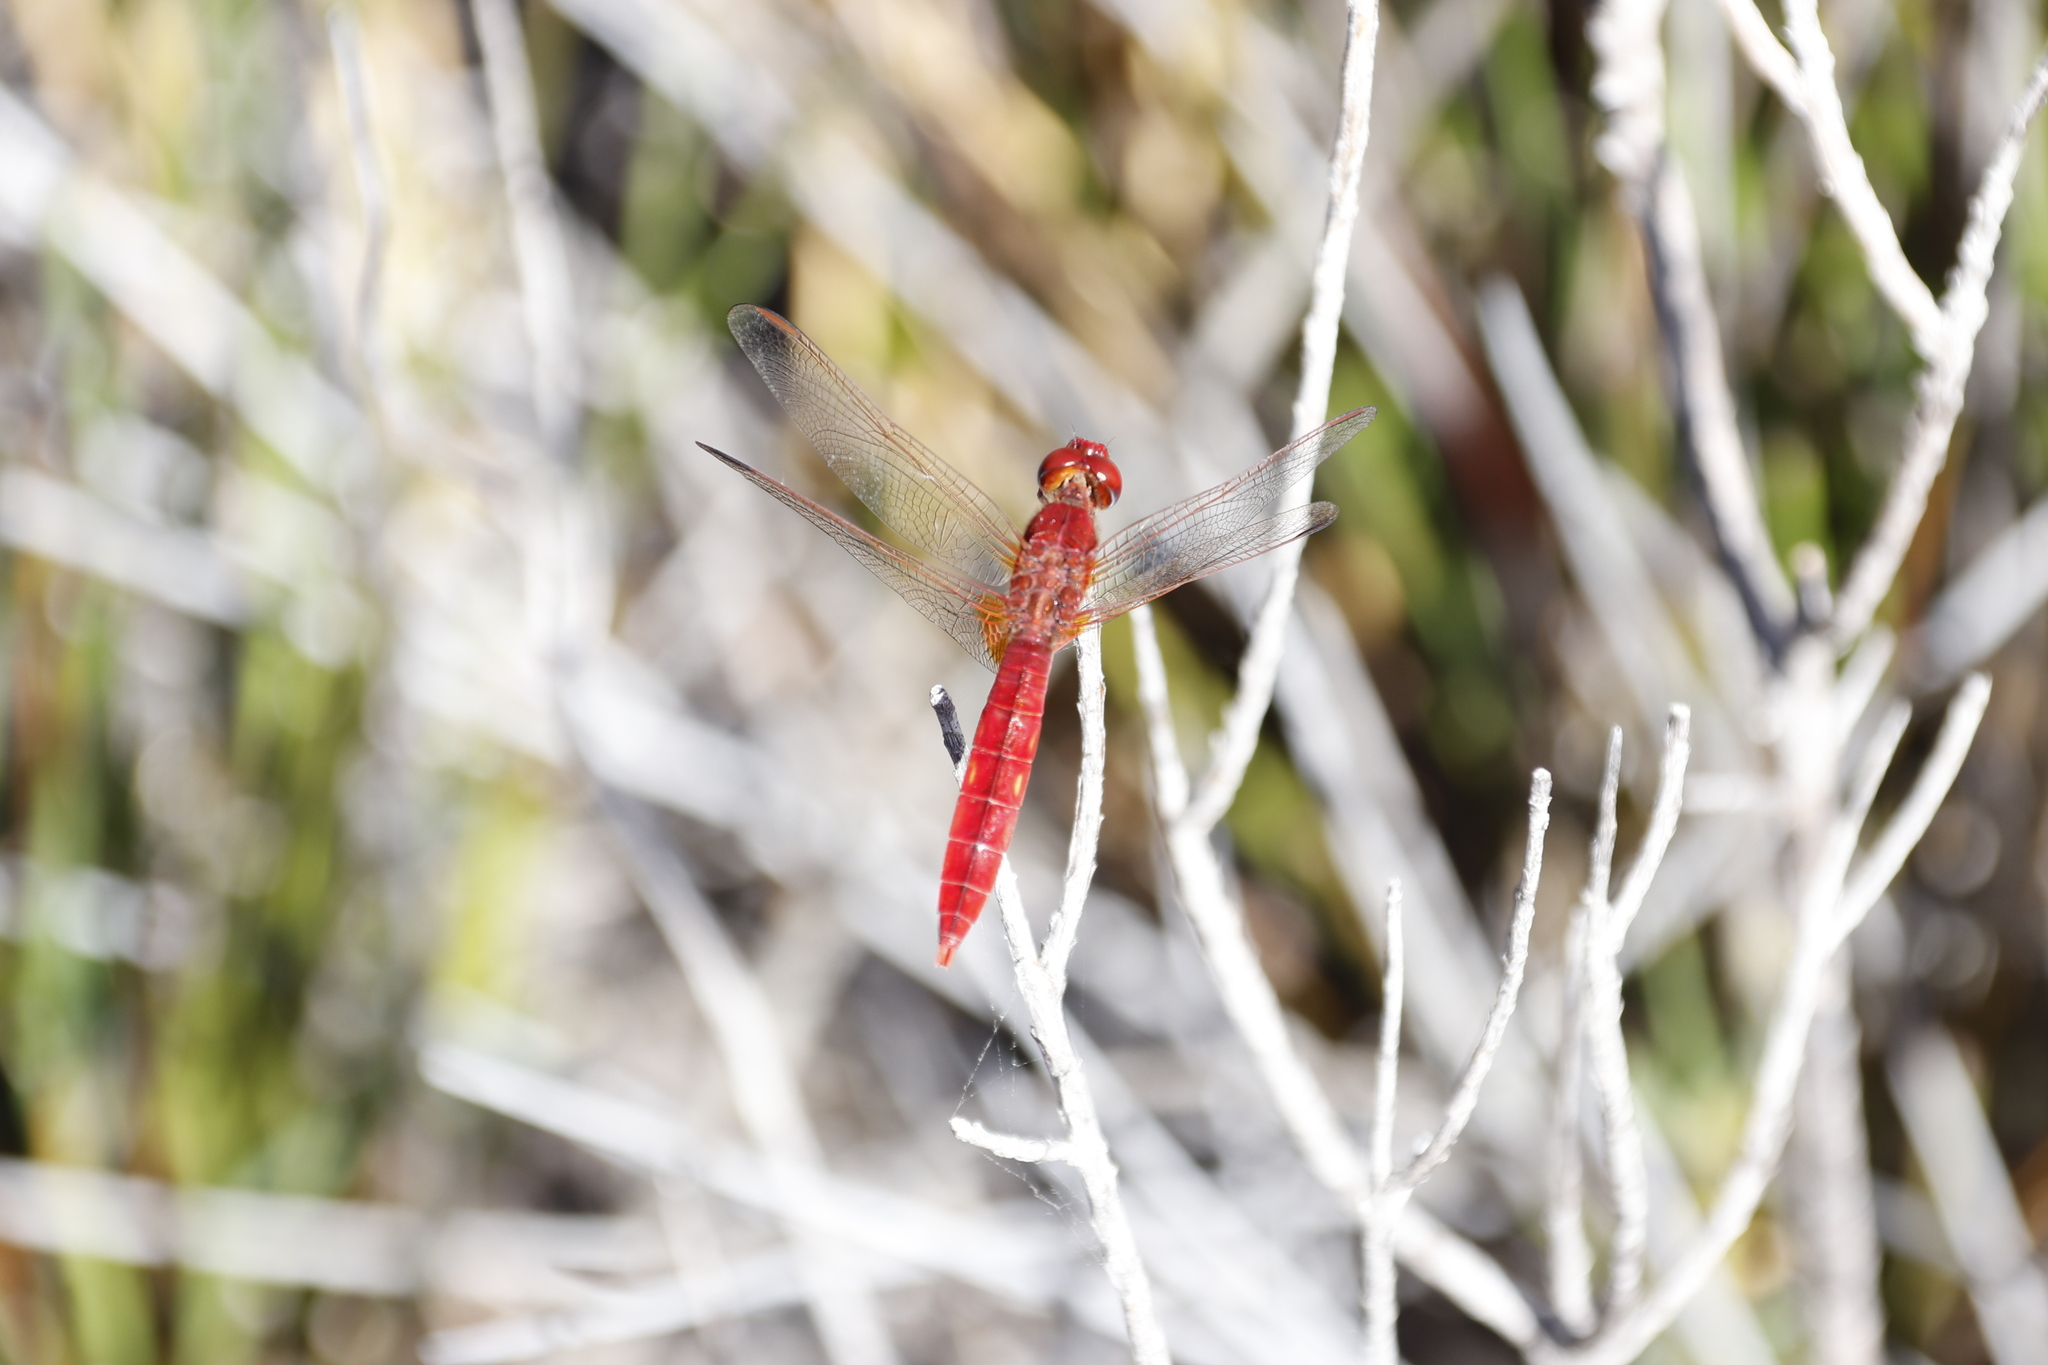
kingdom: Animalia
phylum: Arthropoda
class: Insecta
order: Odonata
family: Libellulidae
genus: Crocothemis
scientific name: Crocothemis erythraea
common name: Scarlet dragonfly
